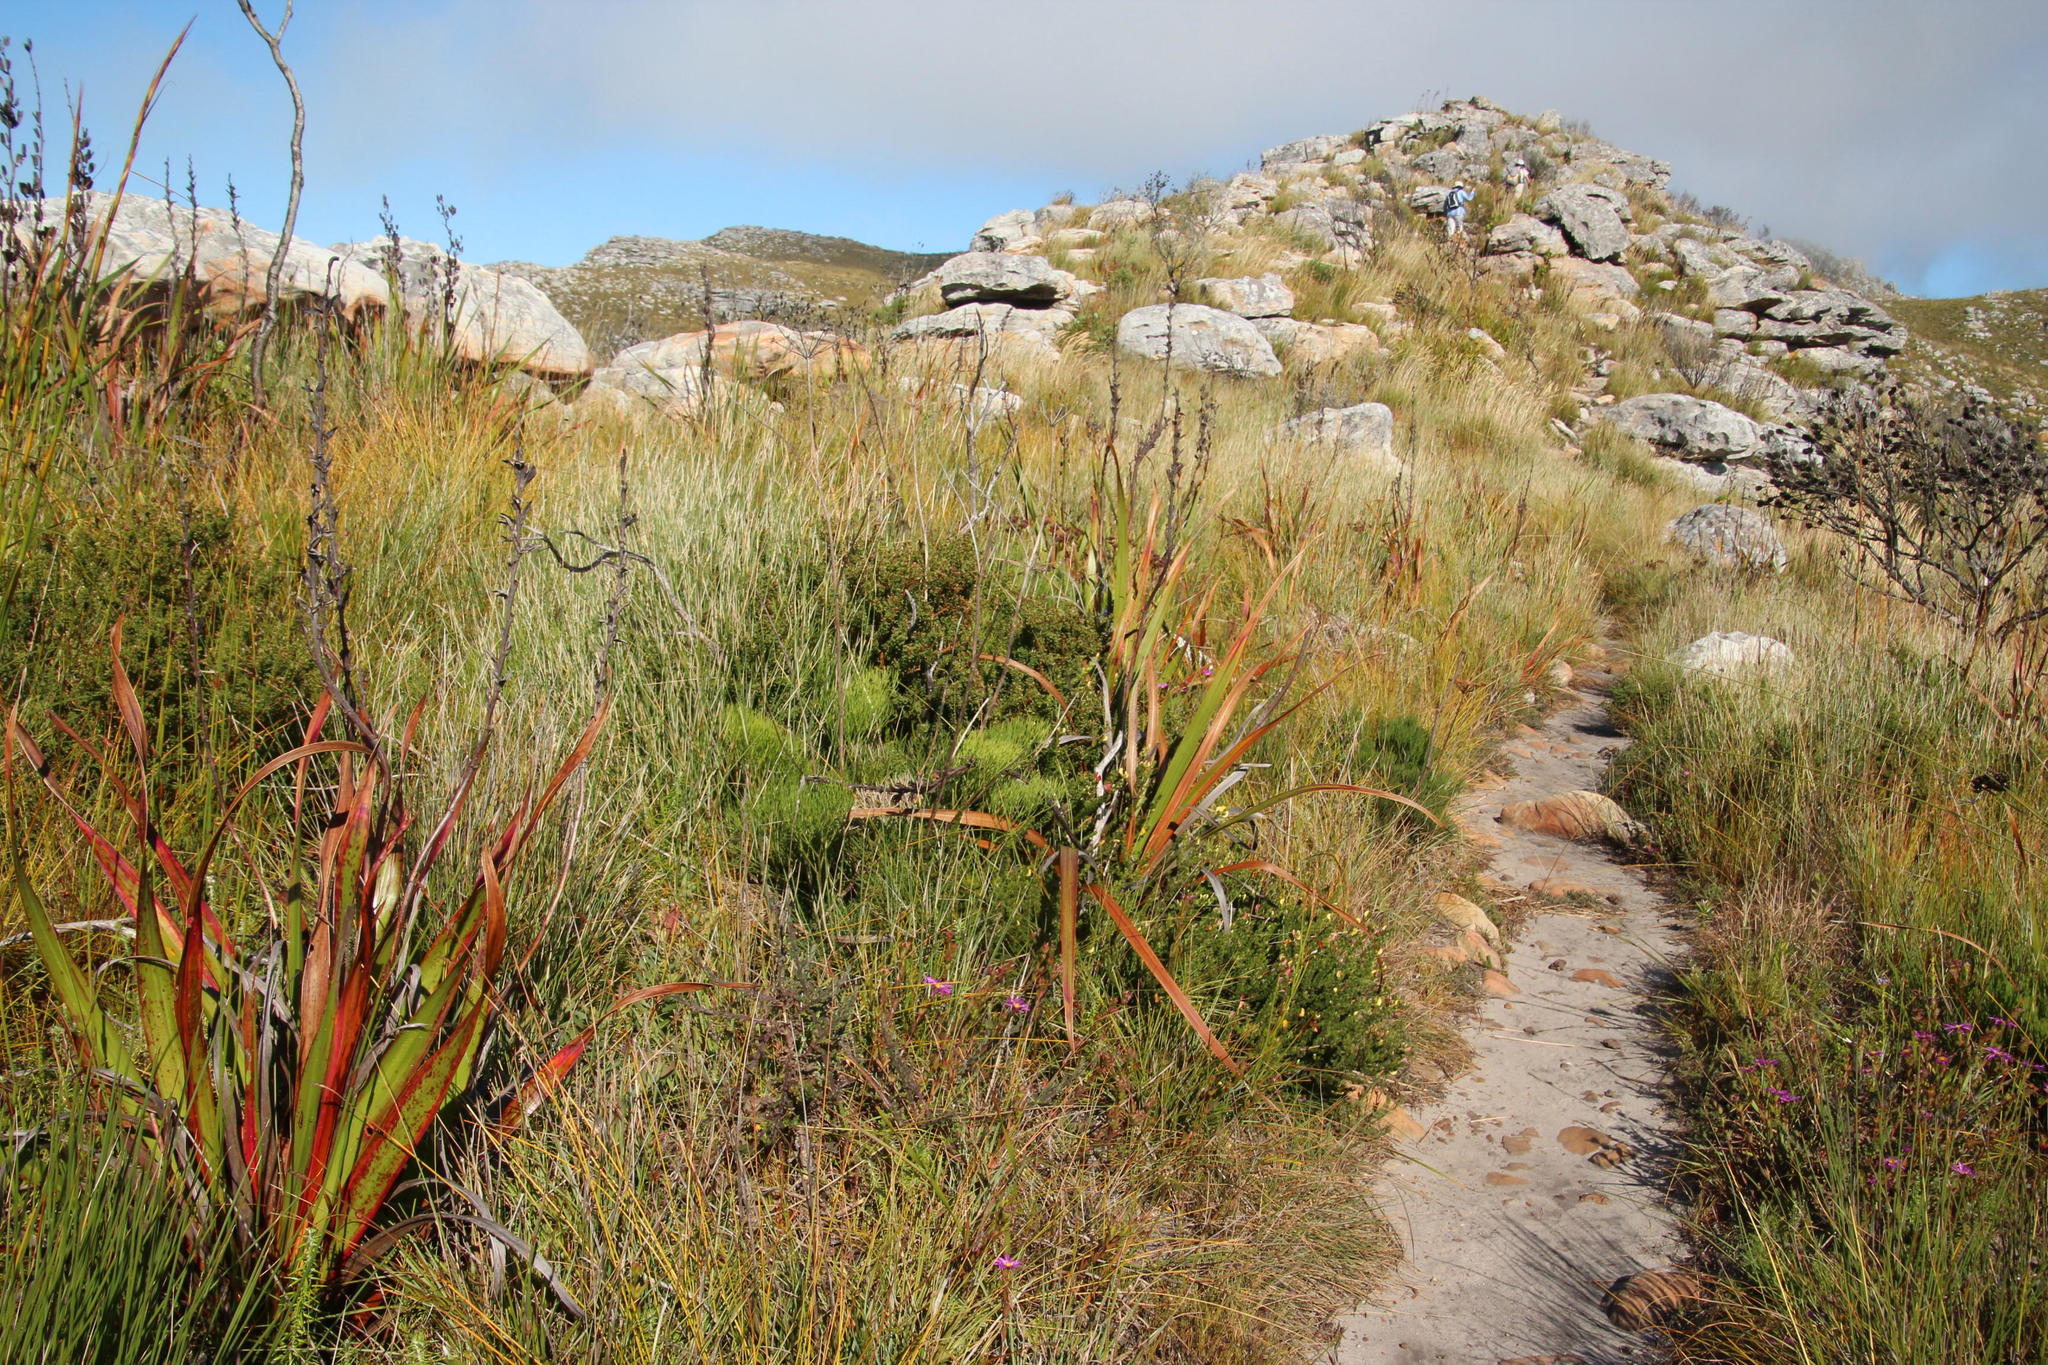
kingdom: Plantae
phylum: Tracheophyta
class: Magnoliopsida
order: Apiales
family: Apiaceae
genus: Nanobubon
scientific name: Nanobubon strictum
